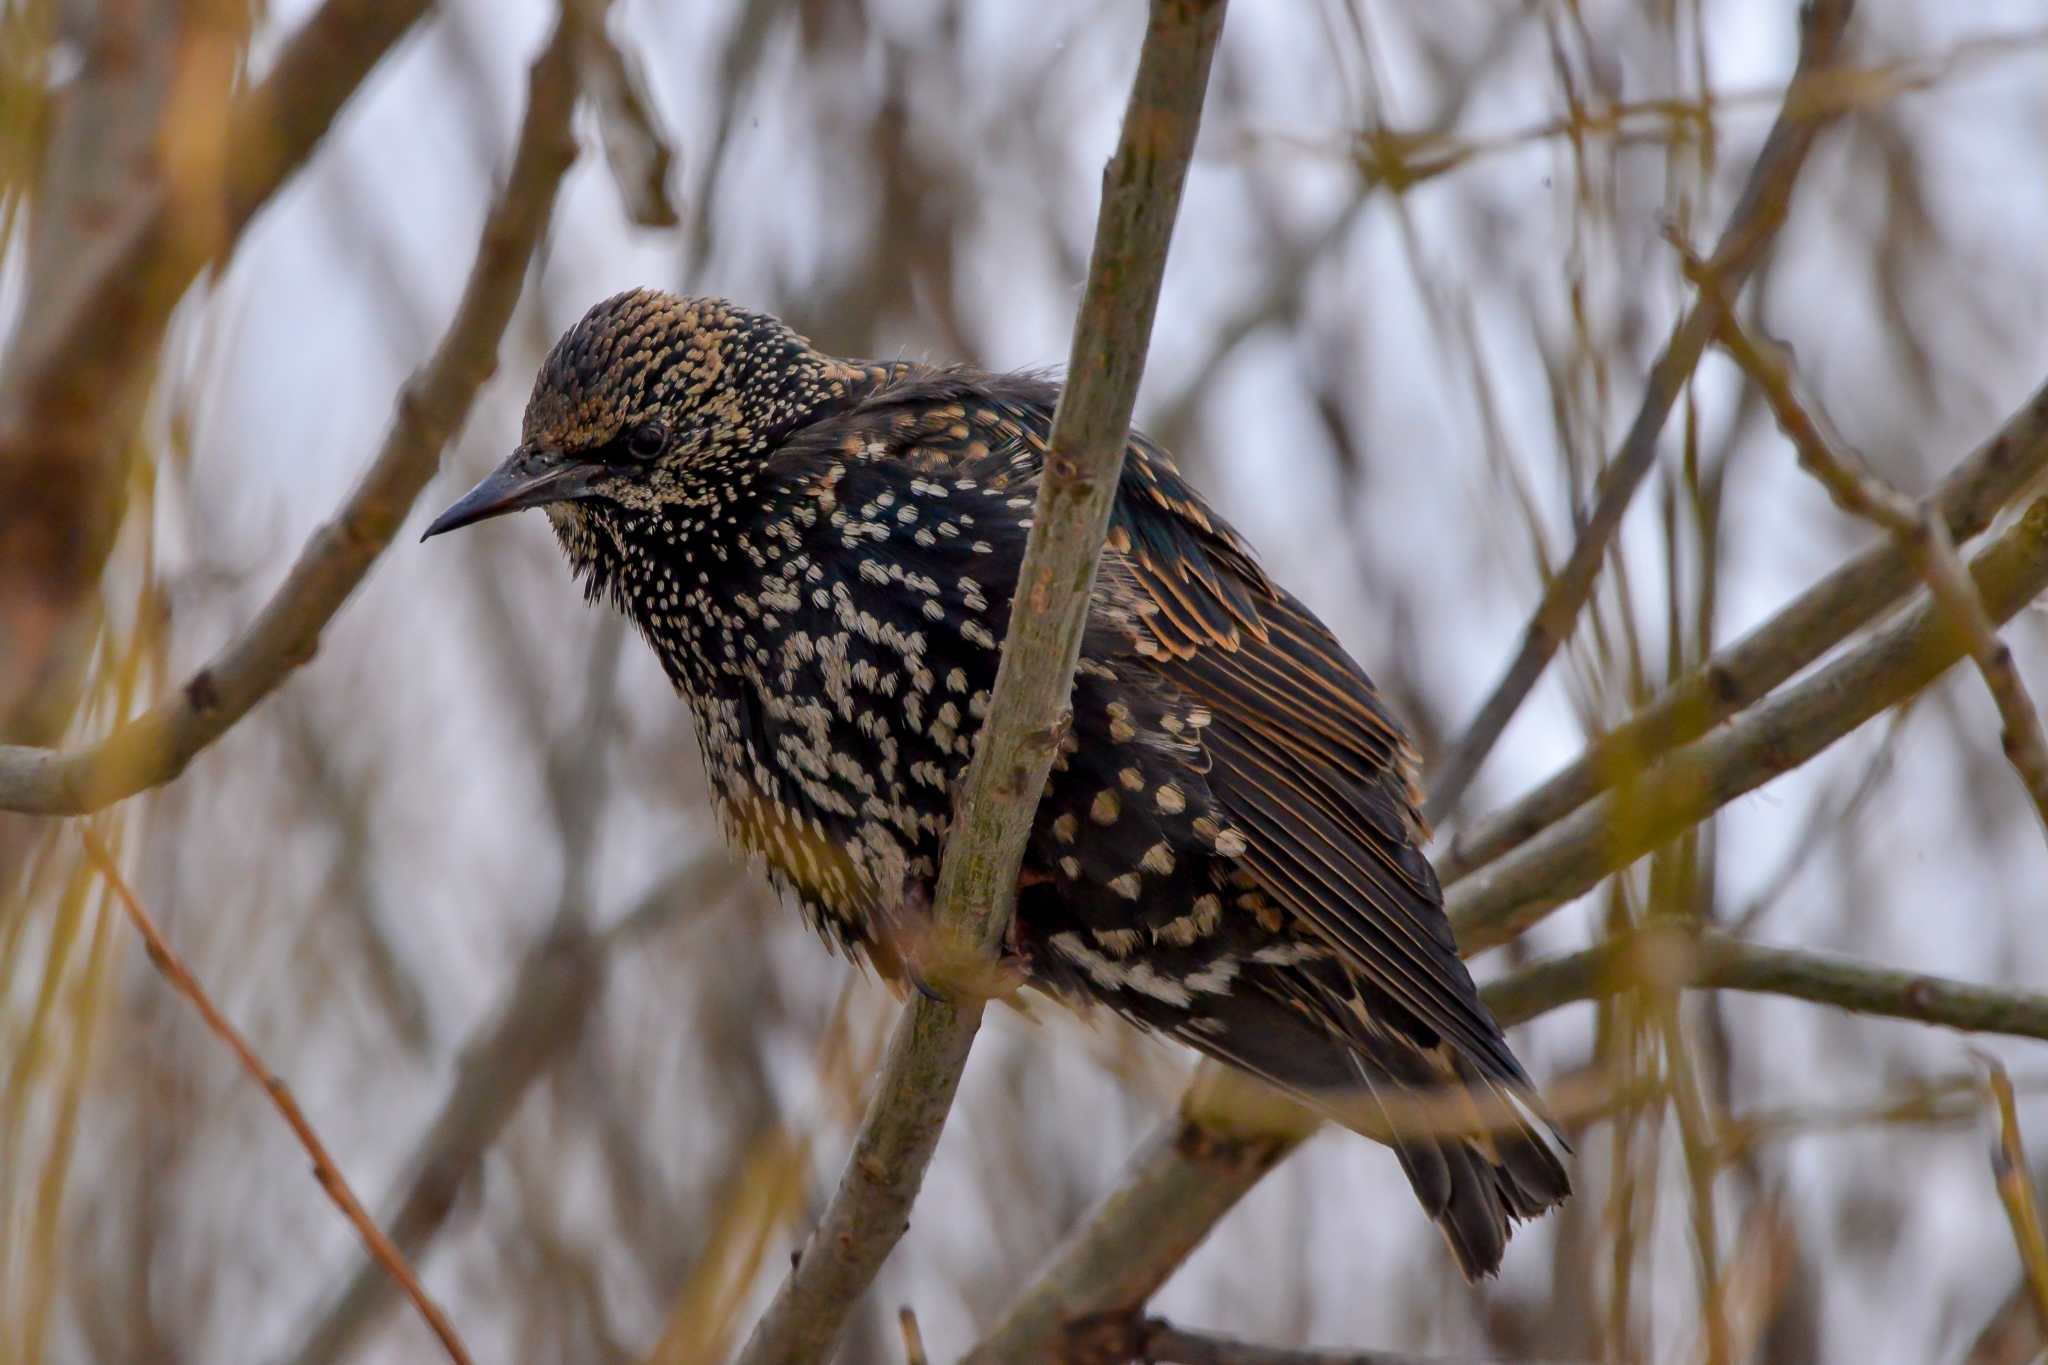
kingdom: Animalia
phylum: Chordata
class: Aves
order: Passeriformes
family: Sturnidae
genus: Sturnus
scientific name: Sturnus vulgaris
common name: Common starling
